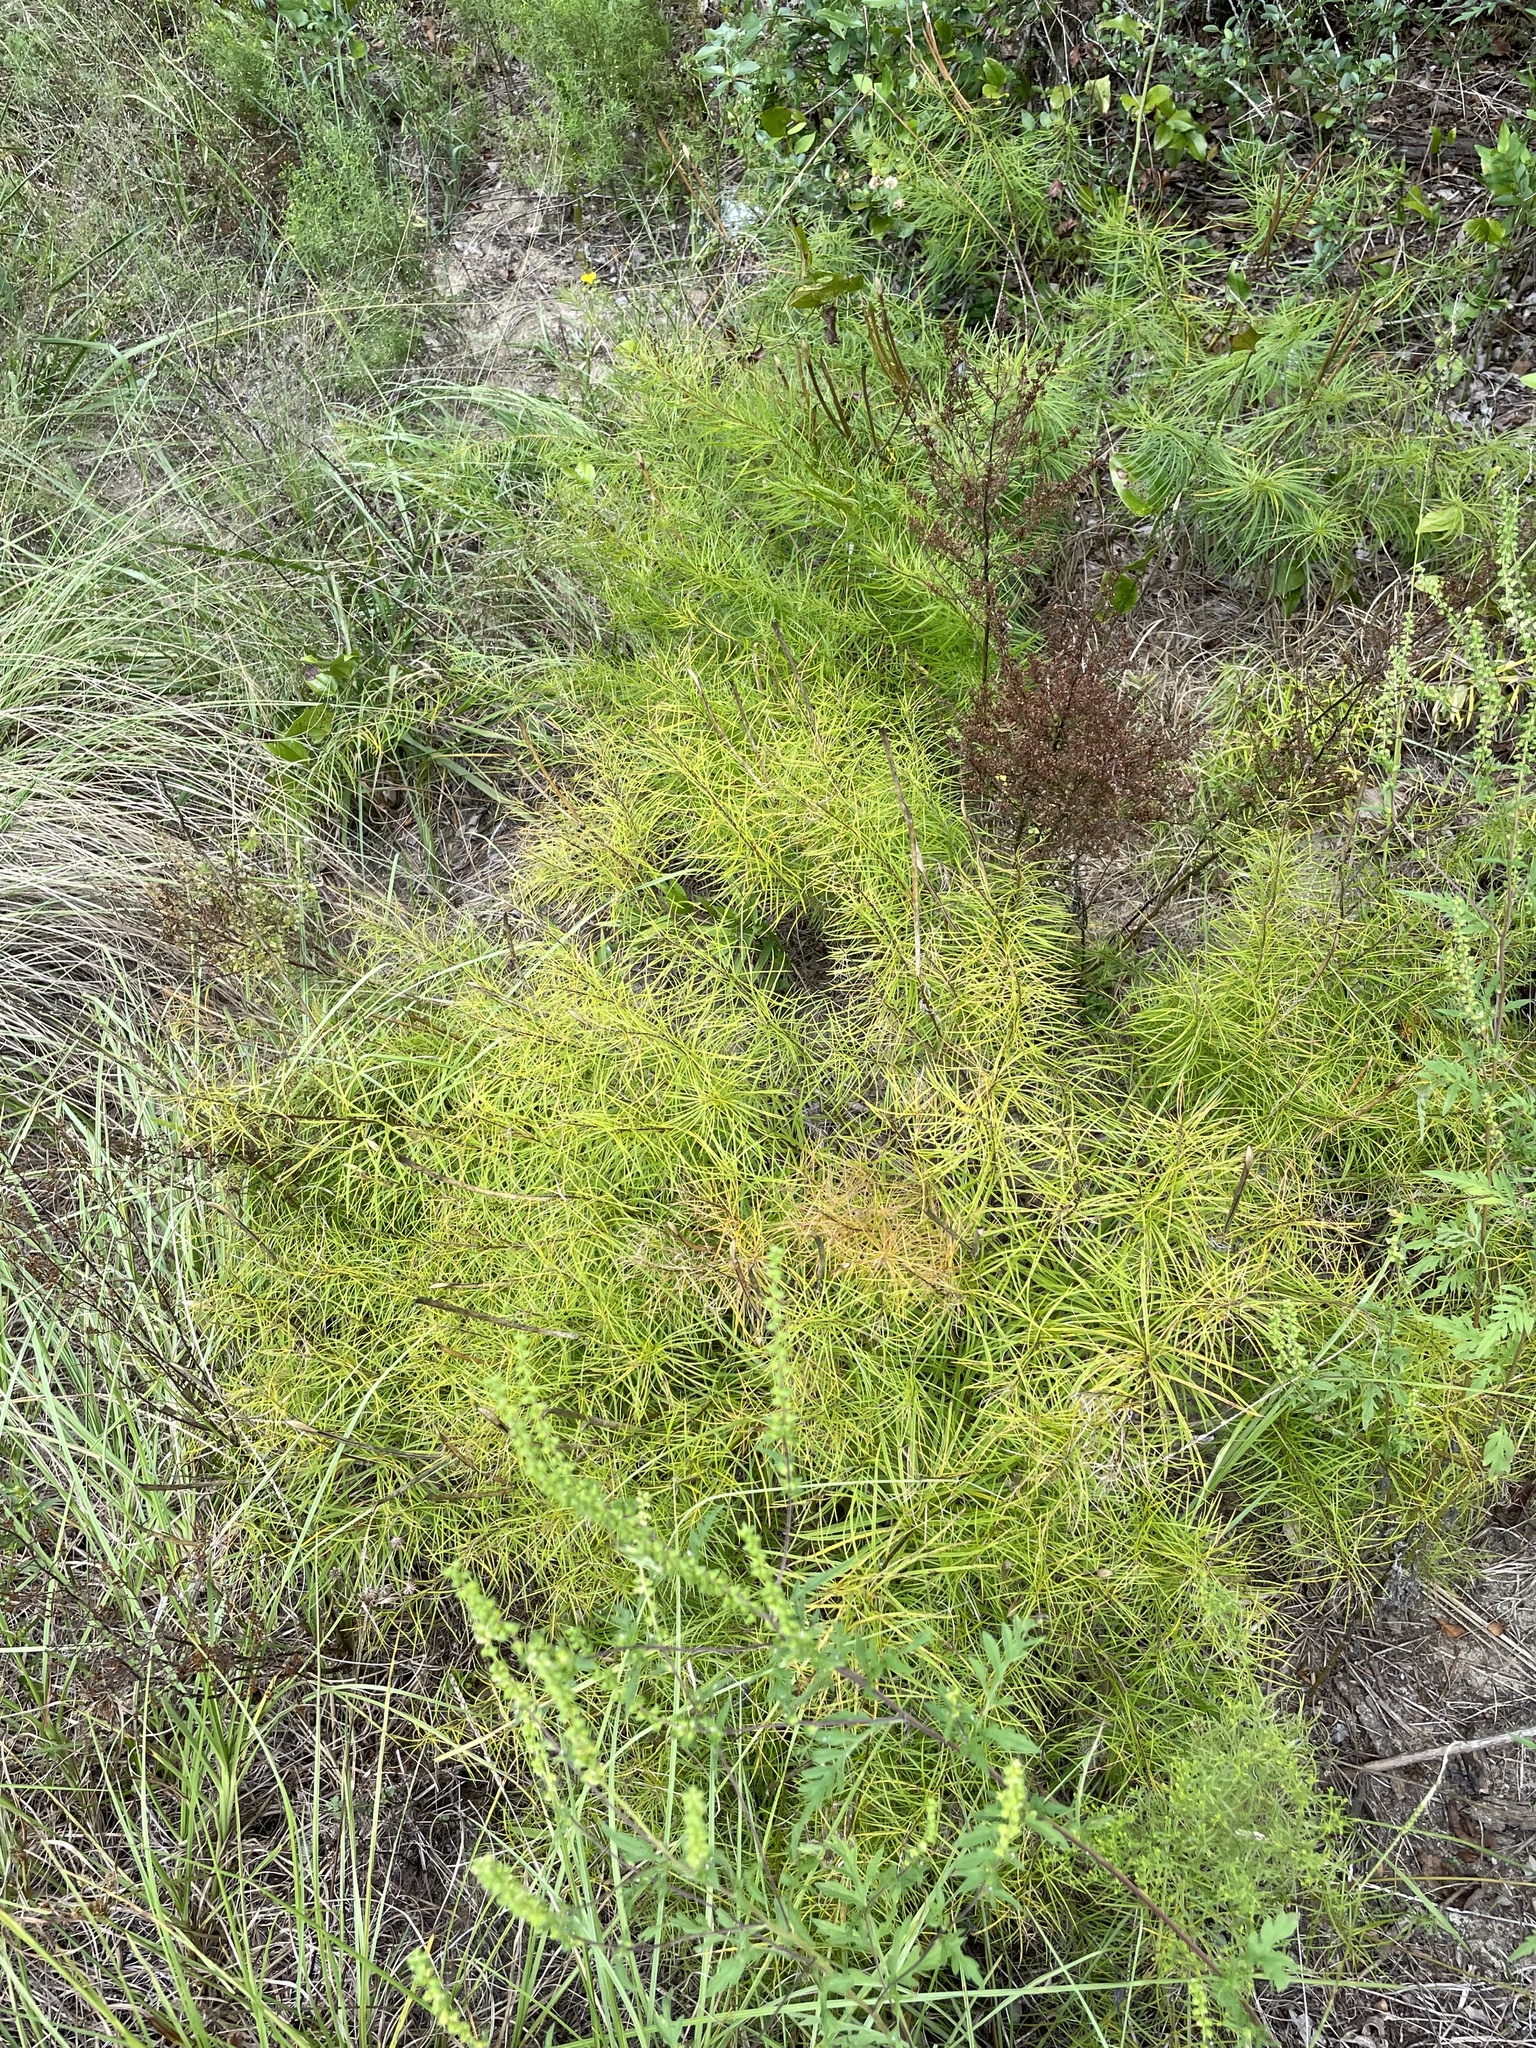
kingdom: Plantae
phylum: Tracheophyta
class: Magnoliopsida
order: Gentianales
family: Apocynaceae
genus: Amsonia
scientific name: Amsonia ciliata
